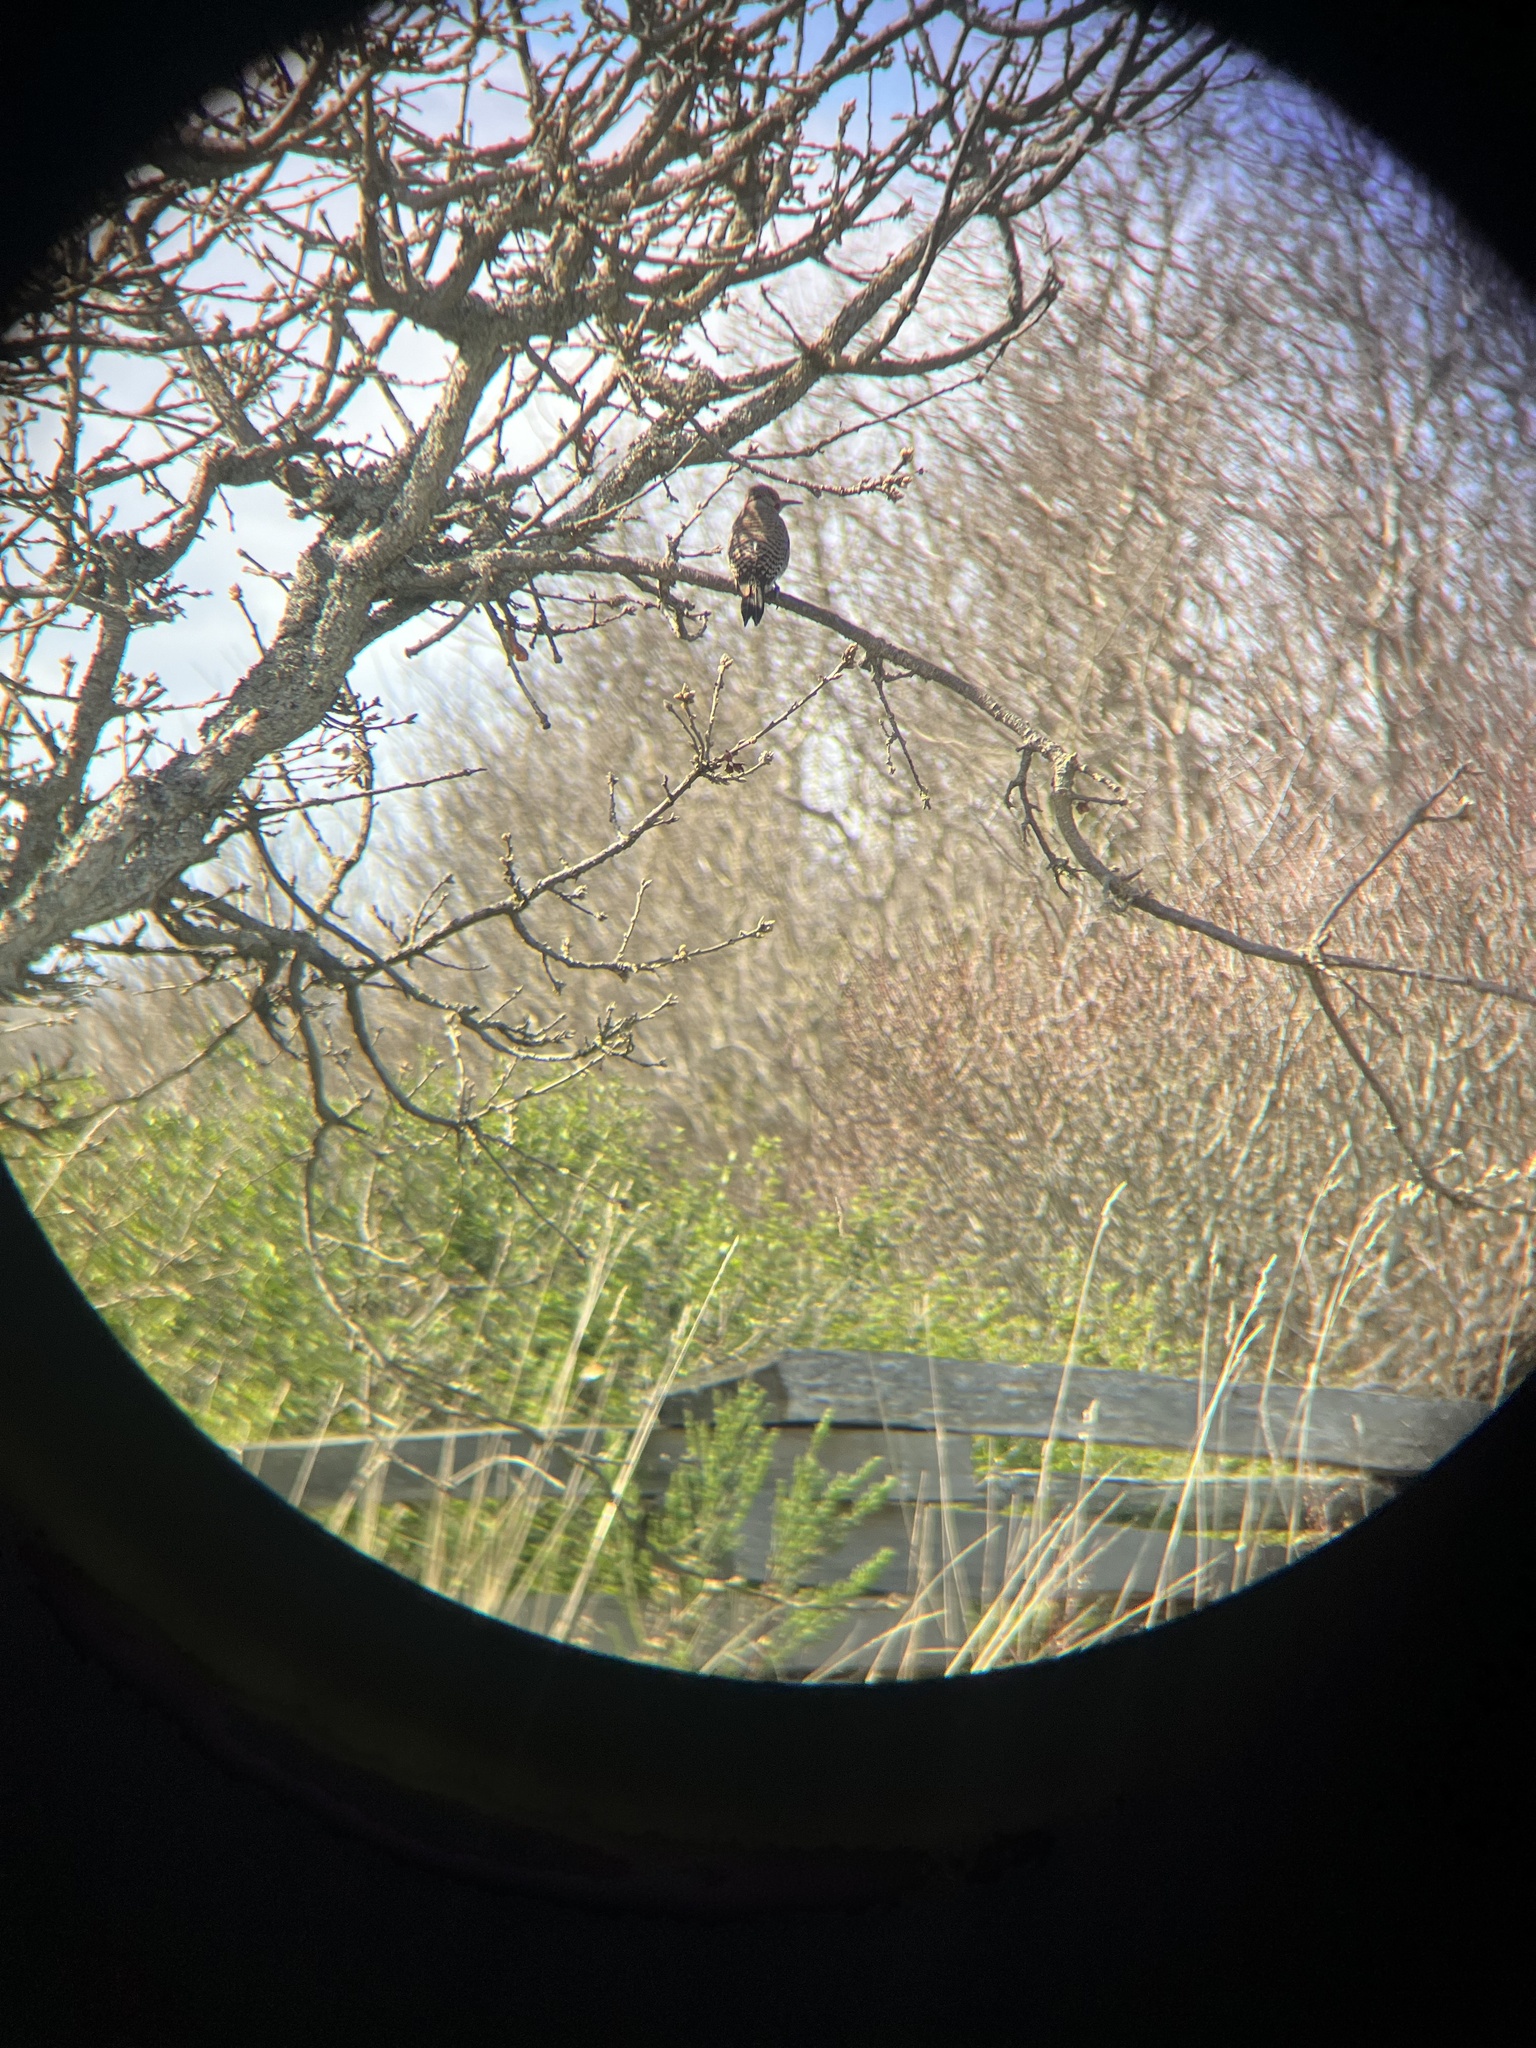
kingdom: Animalia
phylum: Chordata
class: Aves
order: Piciformes
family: Picidae
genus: Colaptes
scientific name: Colaptes auratus
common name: Northern flicker
